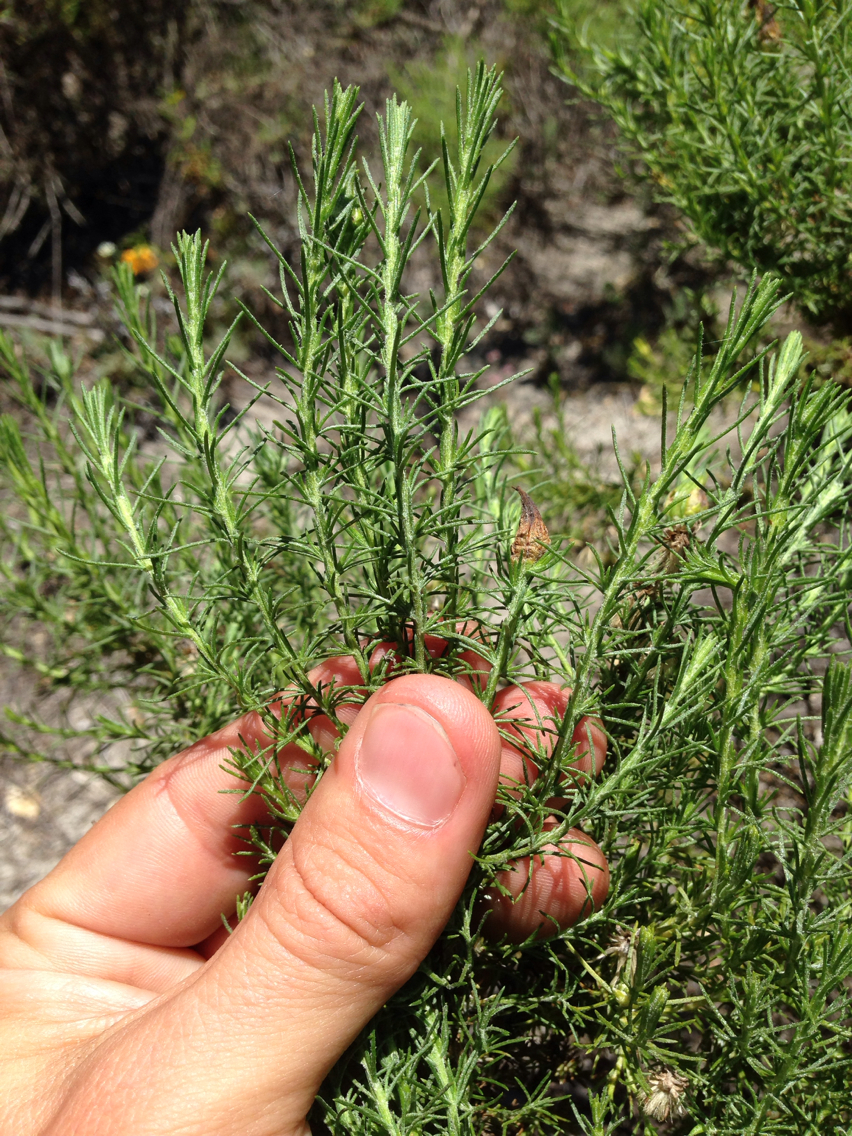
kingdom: Plantae
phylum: Tracheophyta
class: Magnoliopsida
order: Asterales
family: Asteraceae
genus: Ericameria
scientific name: Ericameria ericoides
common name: California goldenbush
